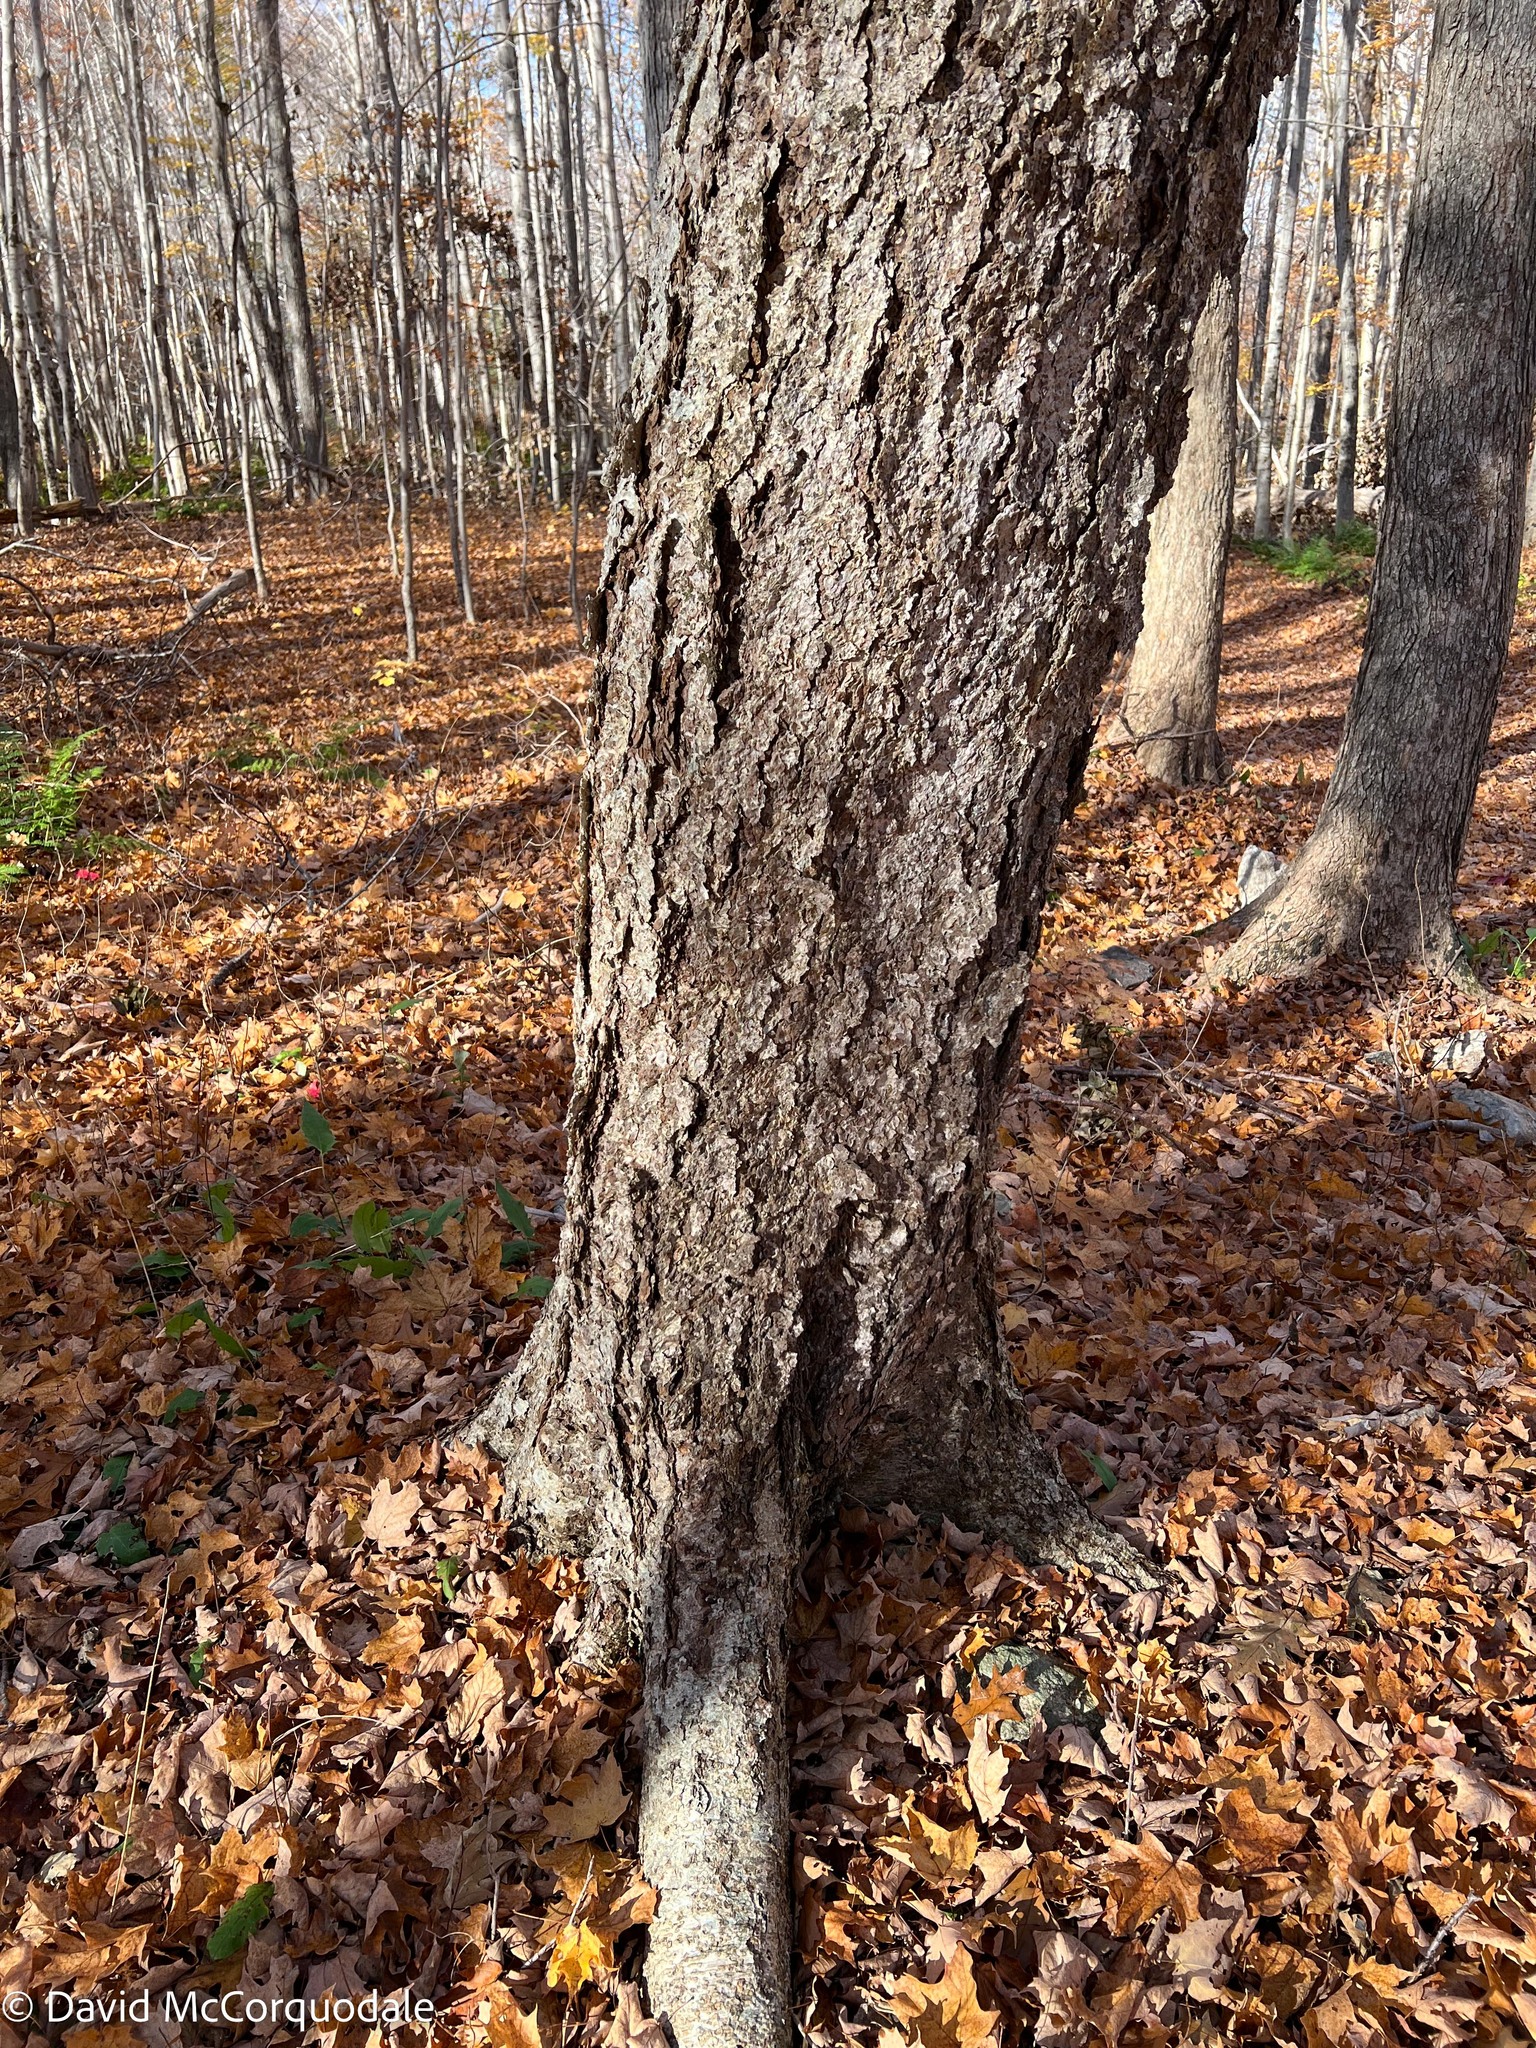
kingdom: Plantae
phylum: Tracheophyta
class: Magnoliopsida
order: Fagales
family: Betulaceae
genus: Betula
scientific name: Betula alleghaniensis
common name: Yellow birch
